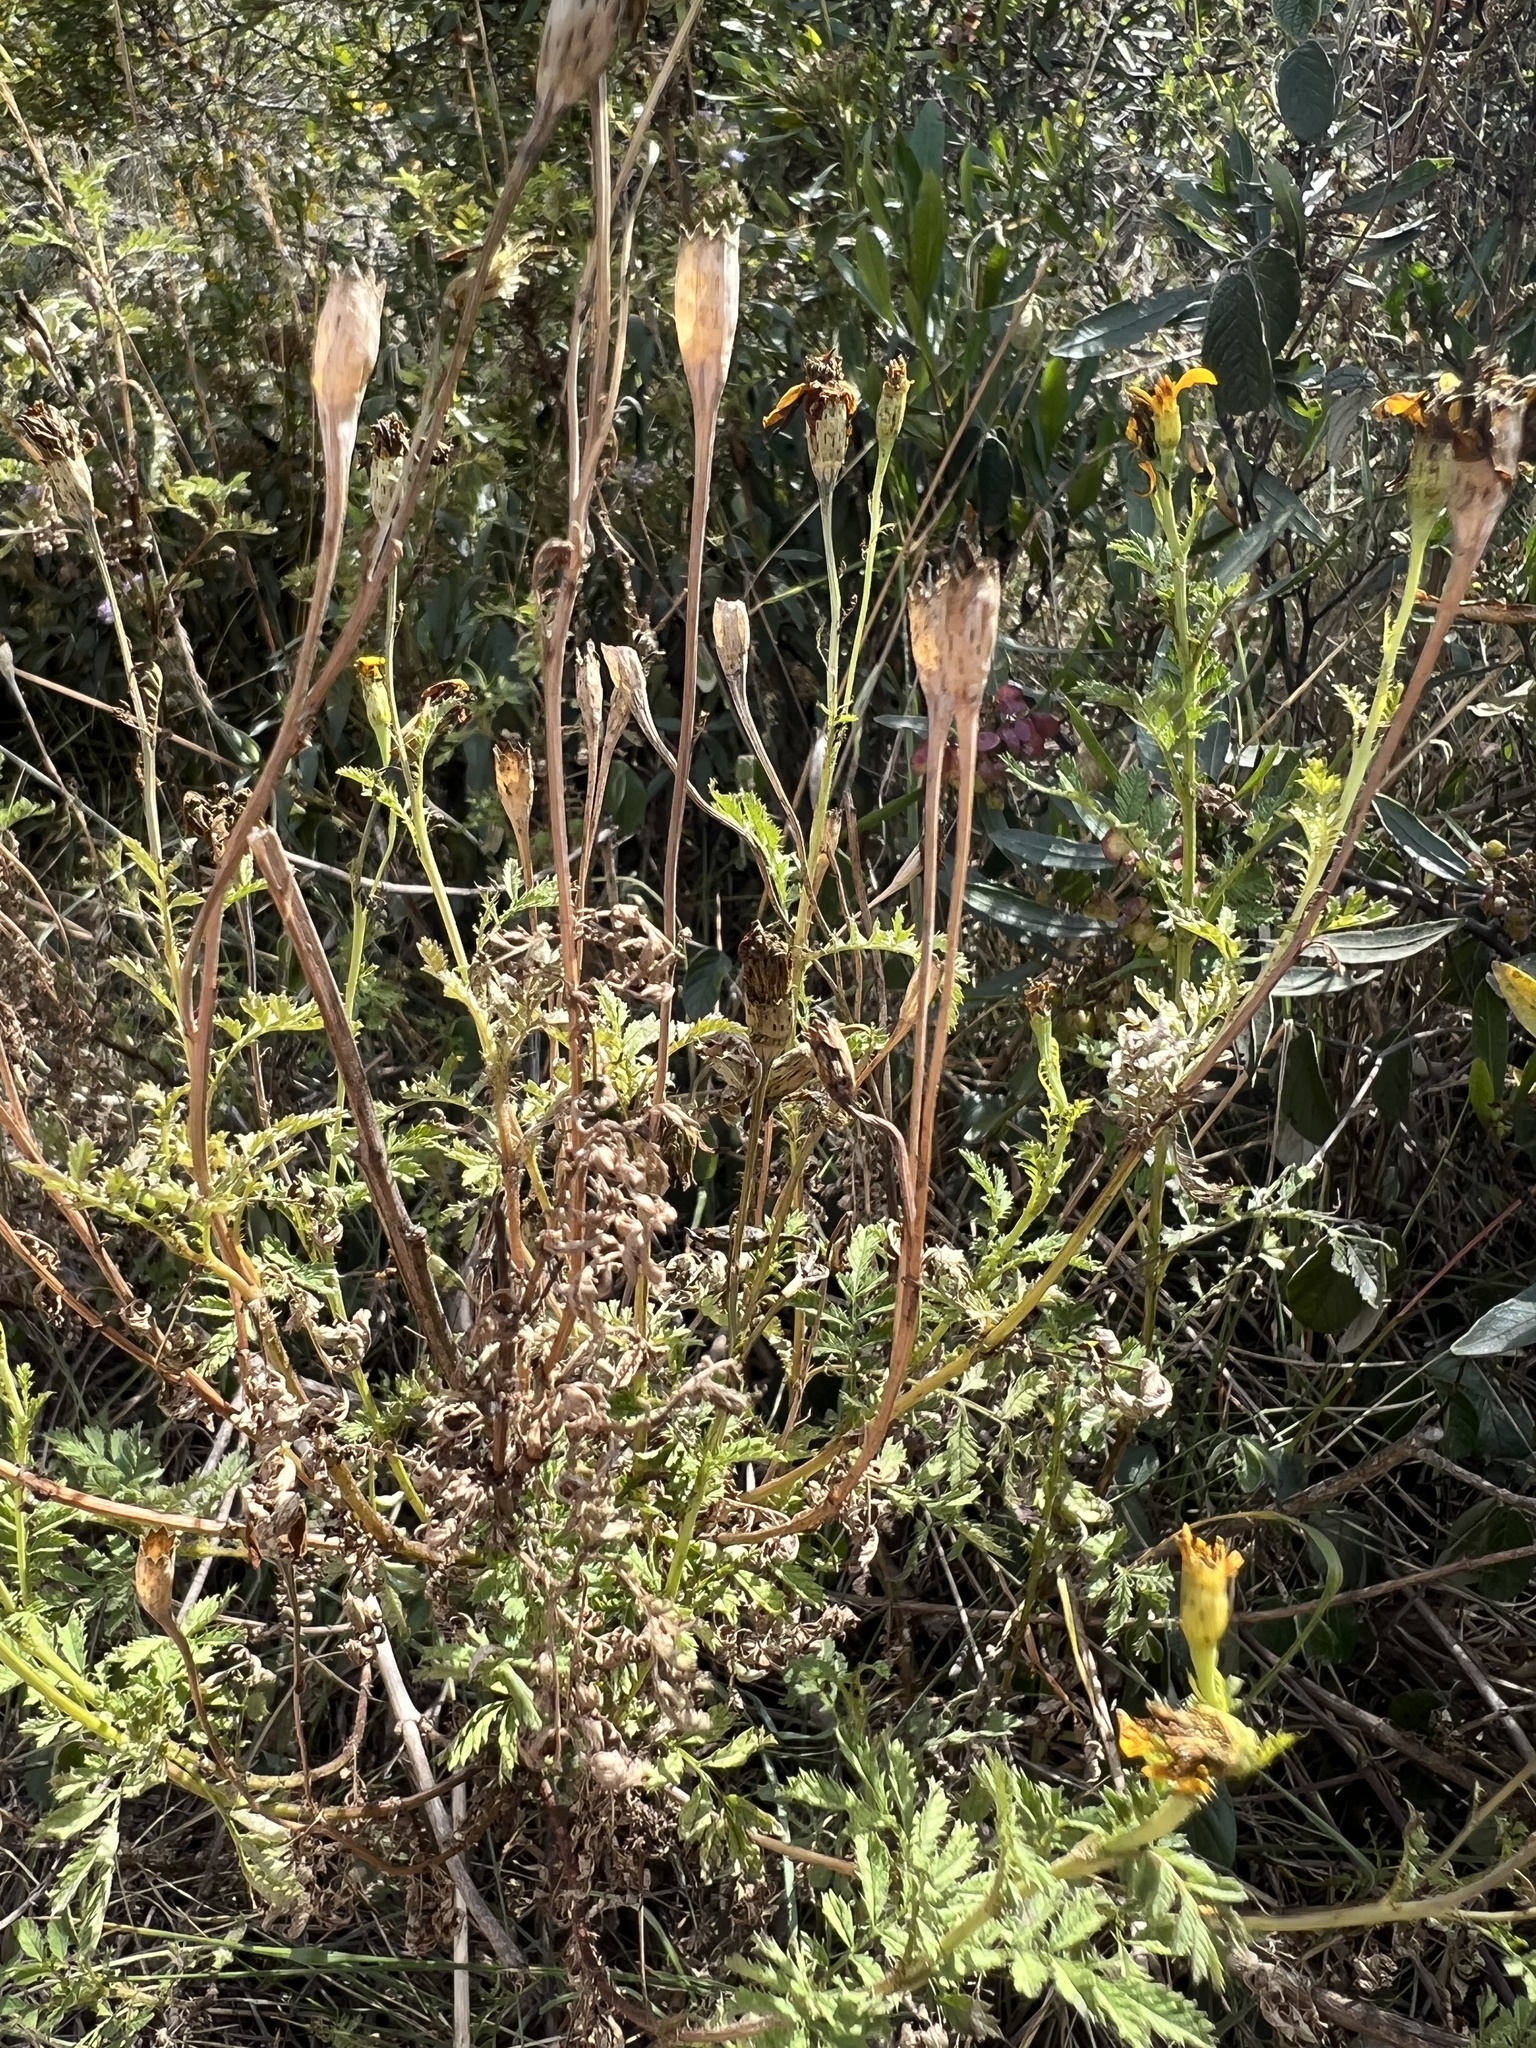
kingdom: Plantae
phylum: Tracheophyta
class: Magnoliopsida
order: Asterales
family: Asteraceae
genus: Tagetes
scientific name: Tagetes zypaquirensis
